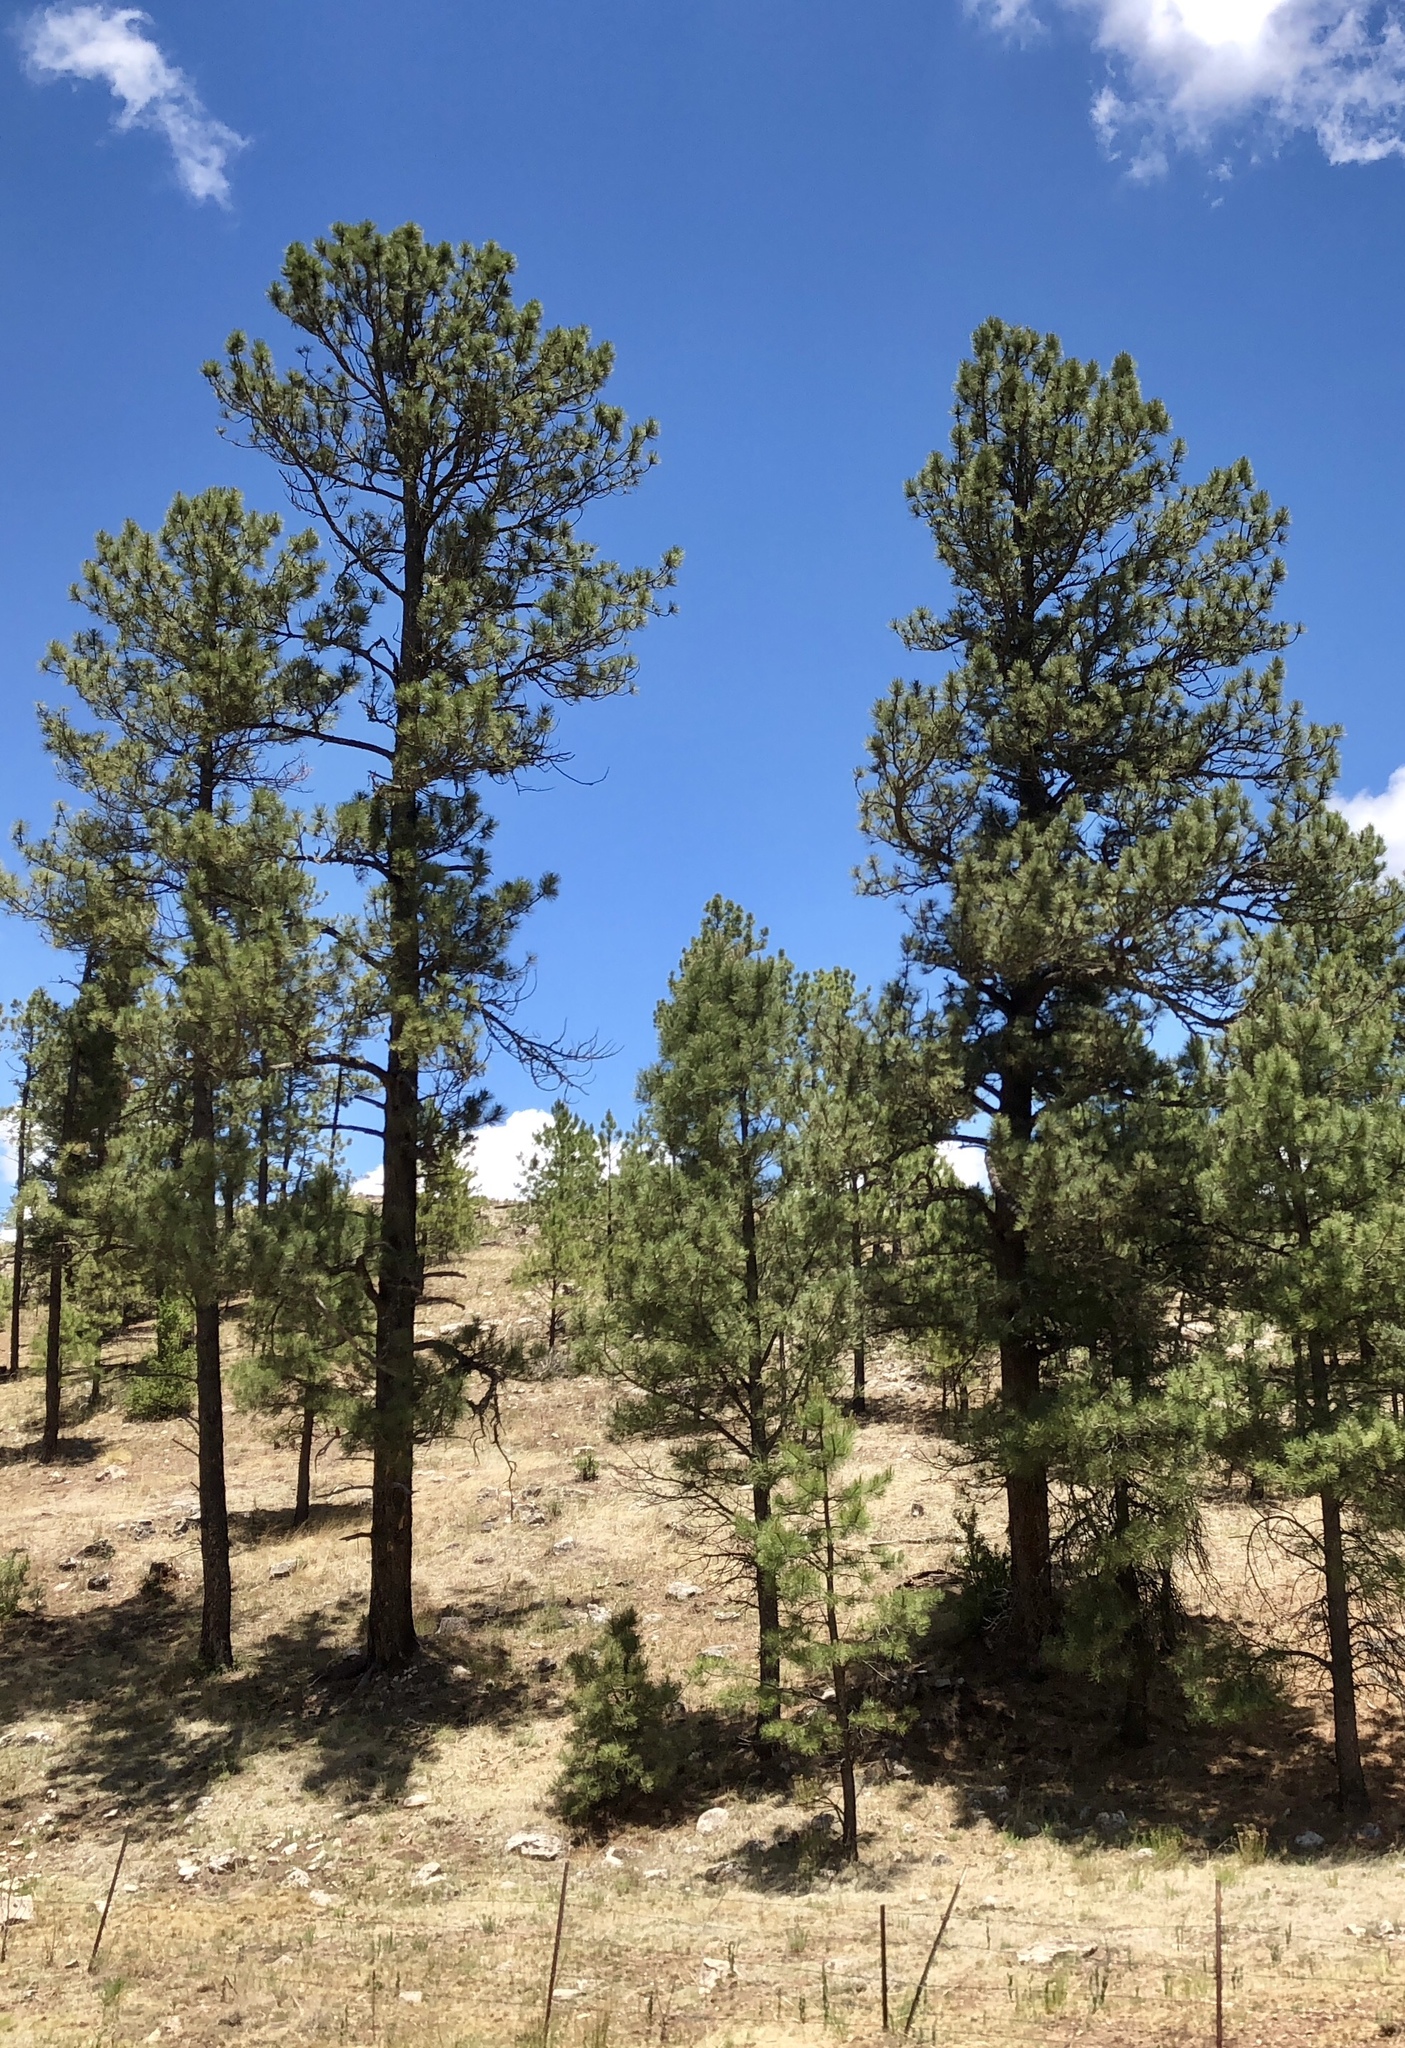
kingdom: Plantae
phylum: Tracheophyta
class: Pinopsida
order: Pinales
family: Pinaceae
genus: Pinus
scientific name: Pinus ponderosa
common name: Western yellow-pine
